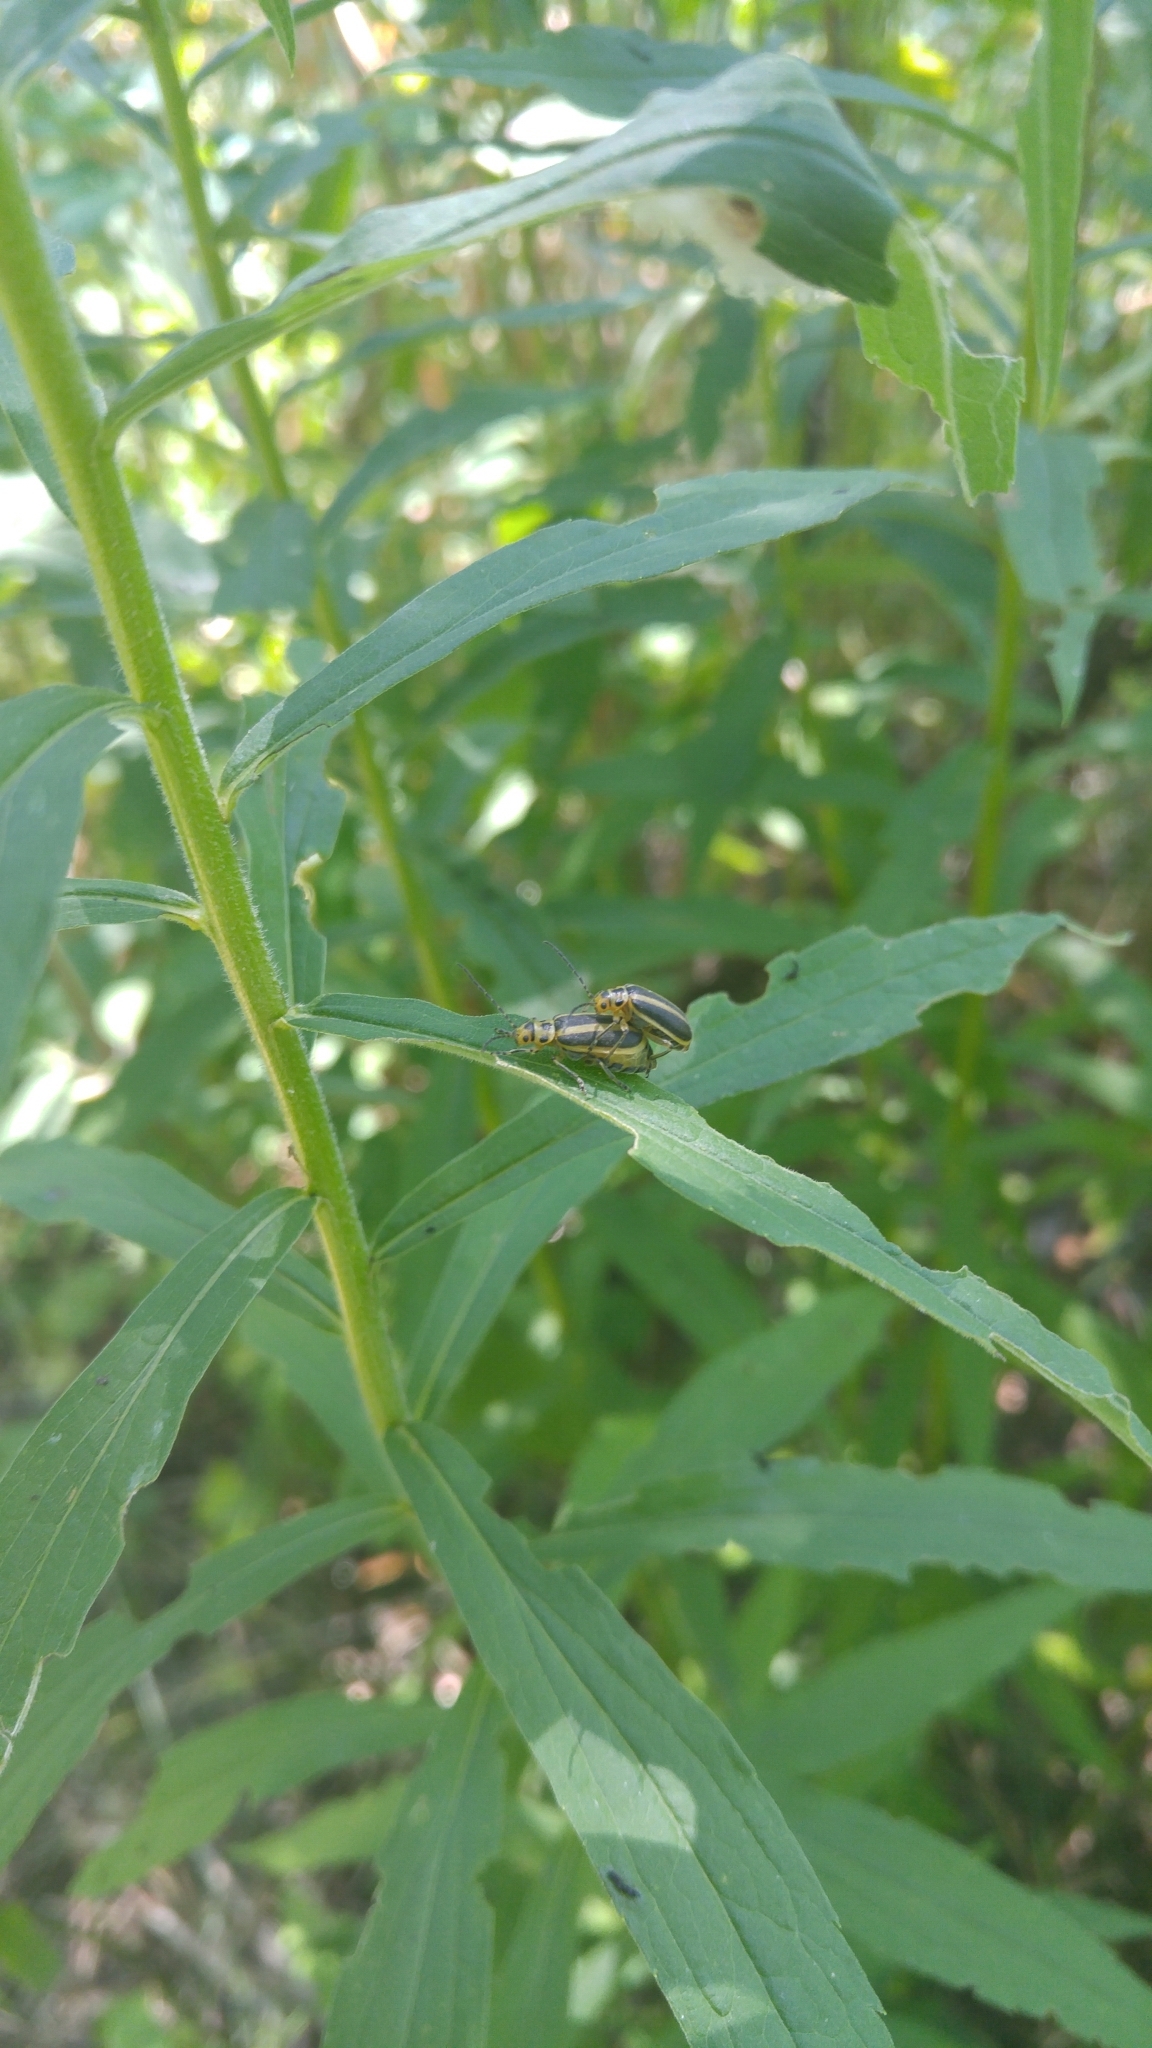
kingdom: Animalia
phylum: Arthropoda
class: Insecta
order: Coleoptera
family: Chrysomelidae
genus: Trirhabda
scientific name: Trirhabda canadensis
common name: Goldenrod leaf beetle
